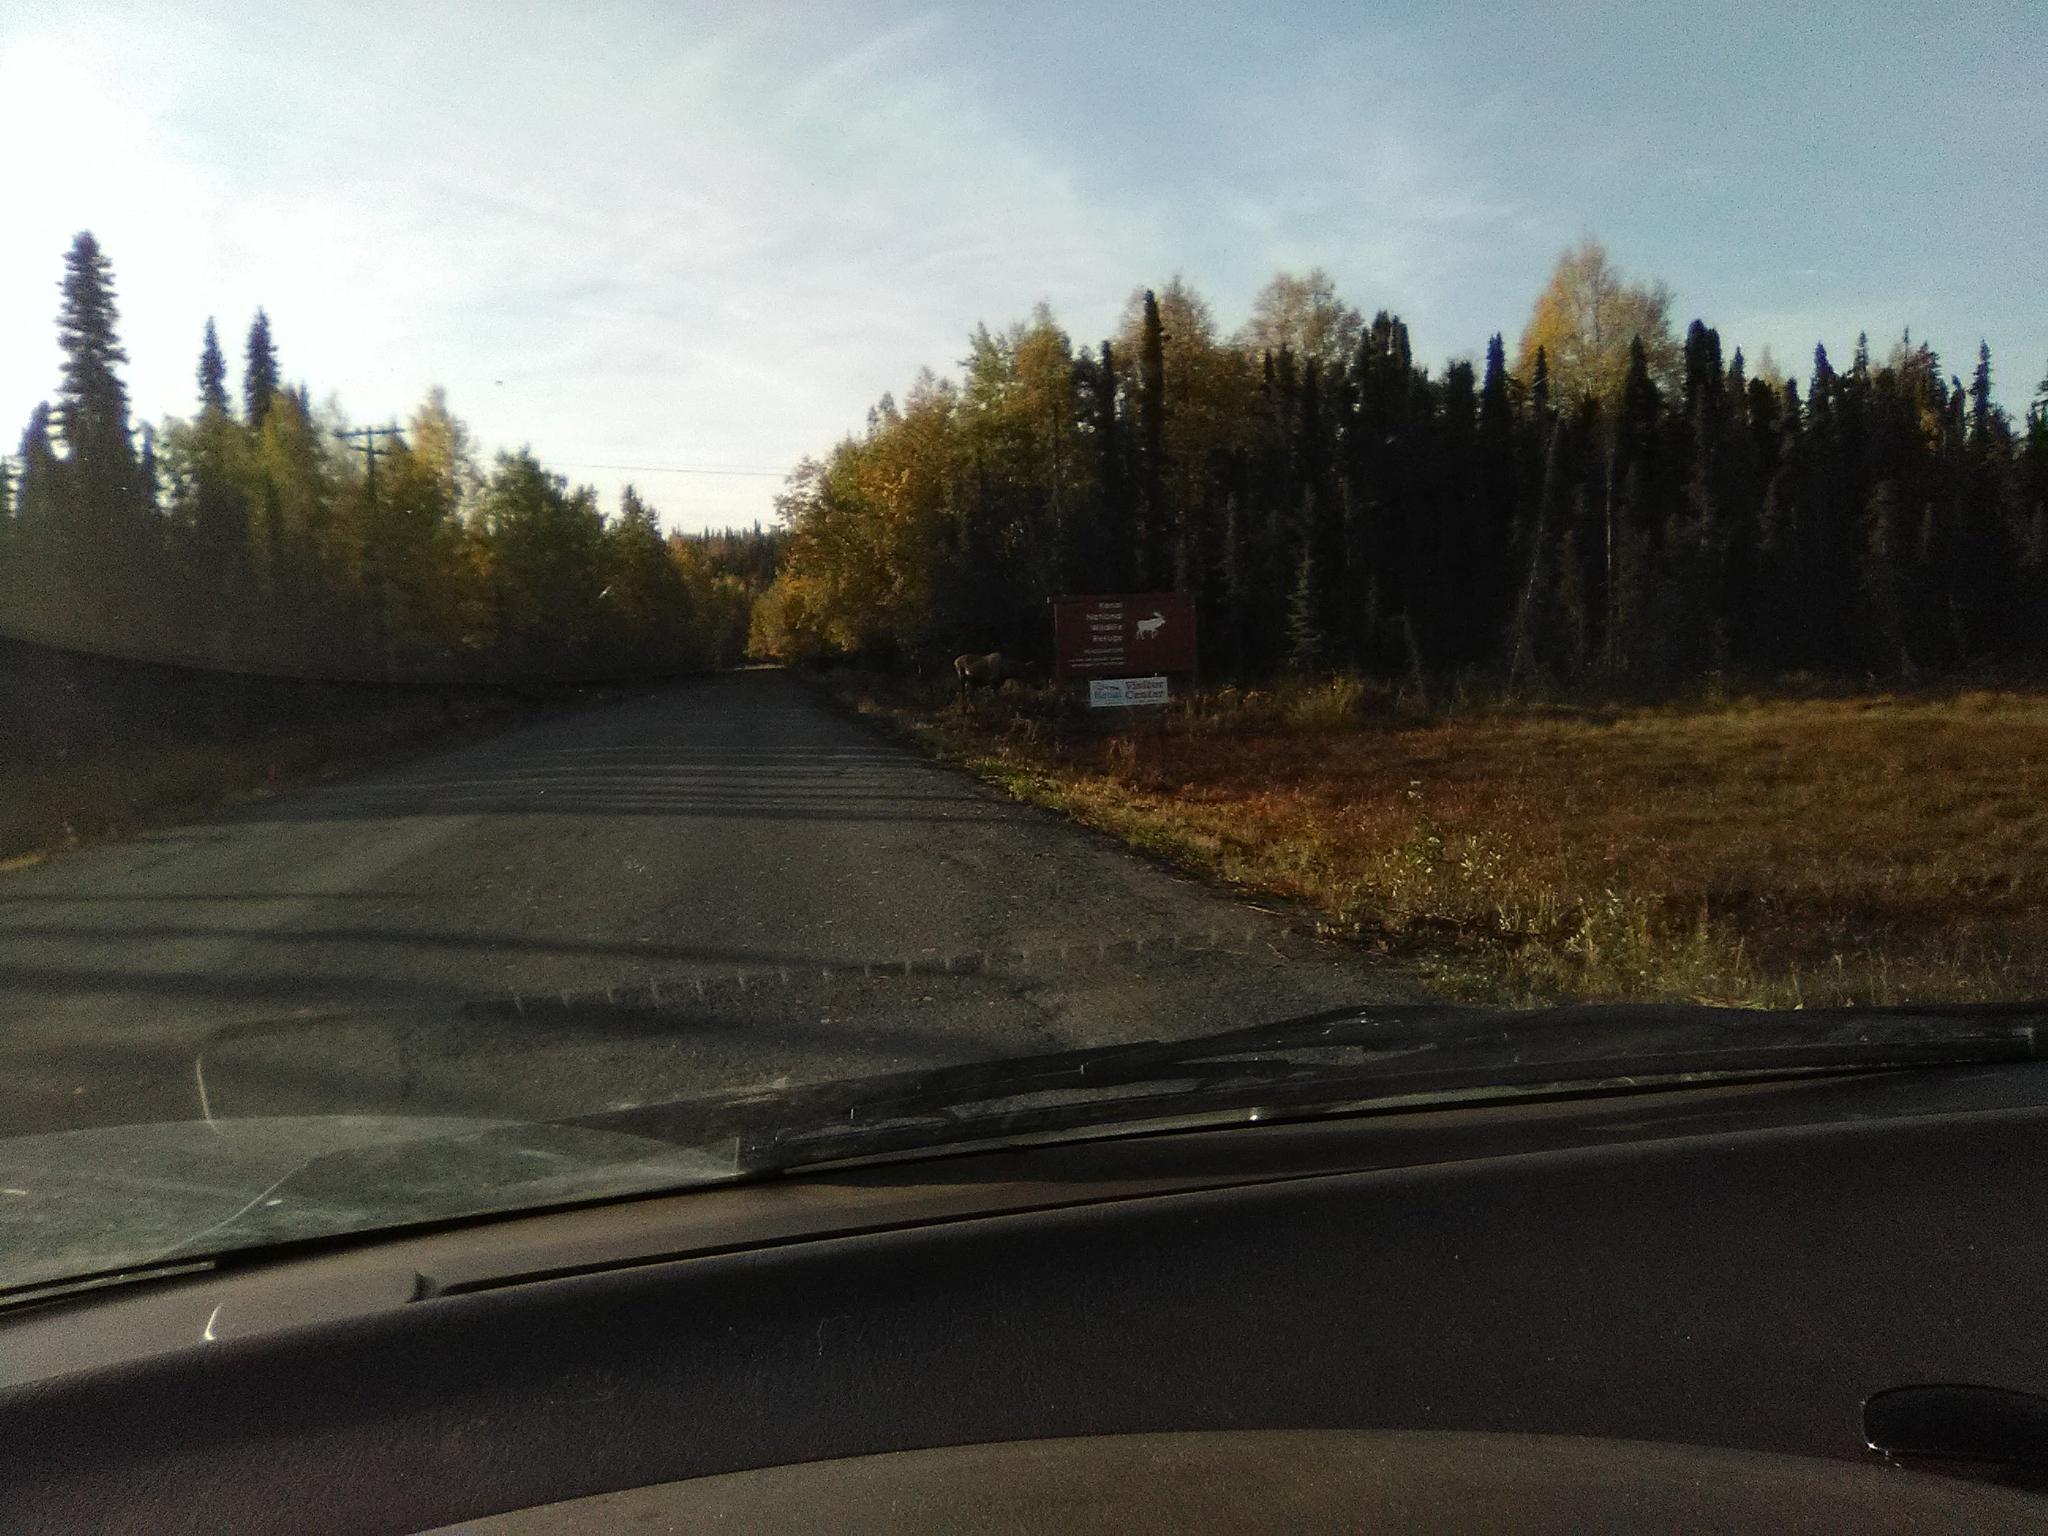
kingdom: Animalia
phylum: Chordata
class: Mammalia
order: Artiodactyla
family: Cervidae
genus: Alces
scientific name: Alces alces
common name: Moose
